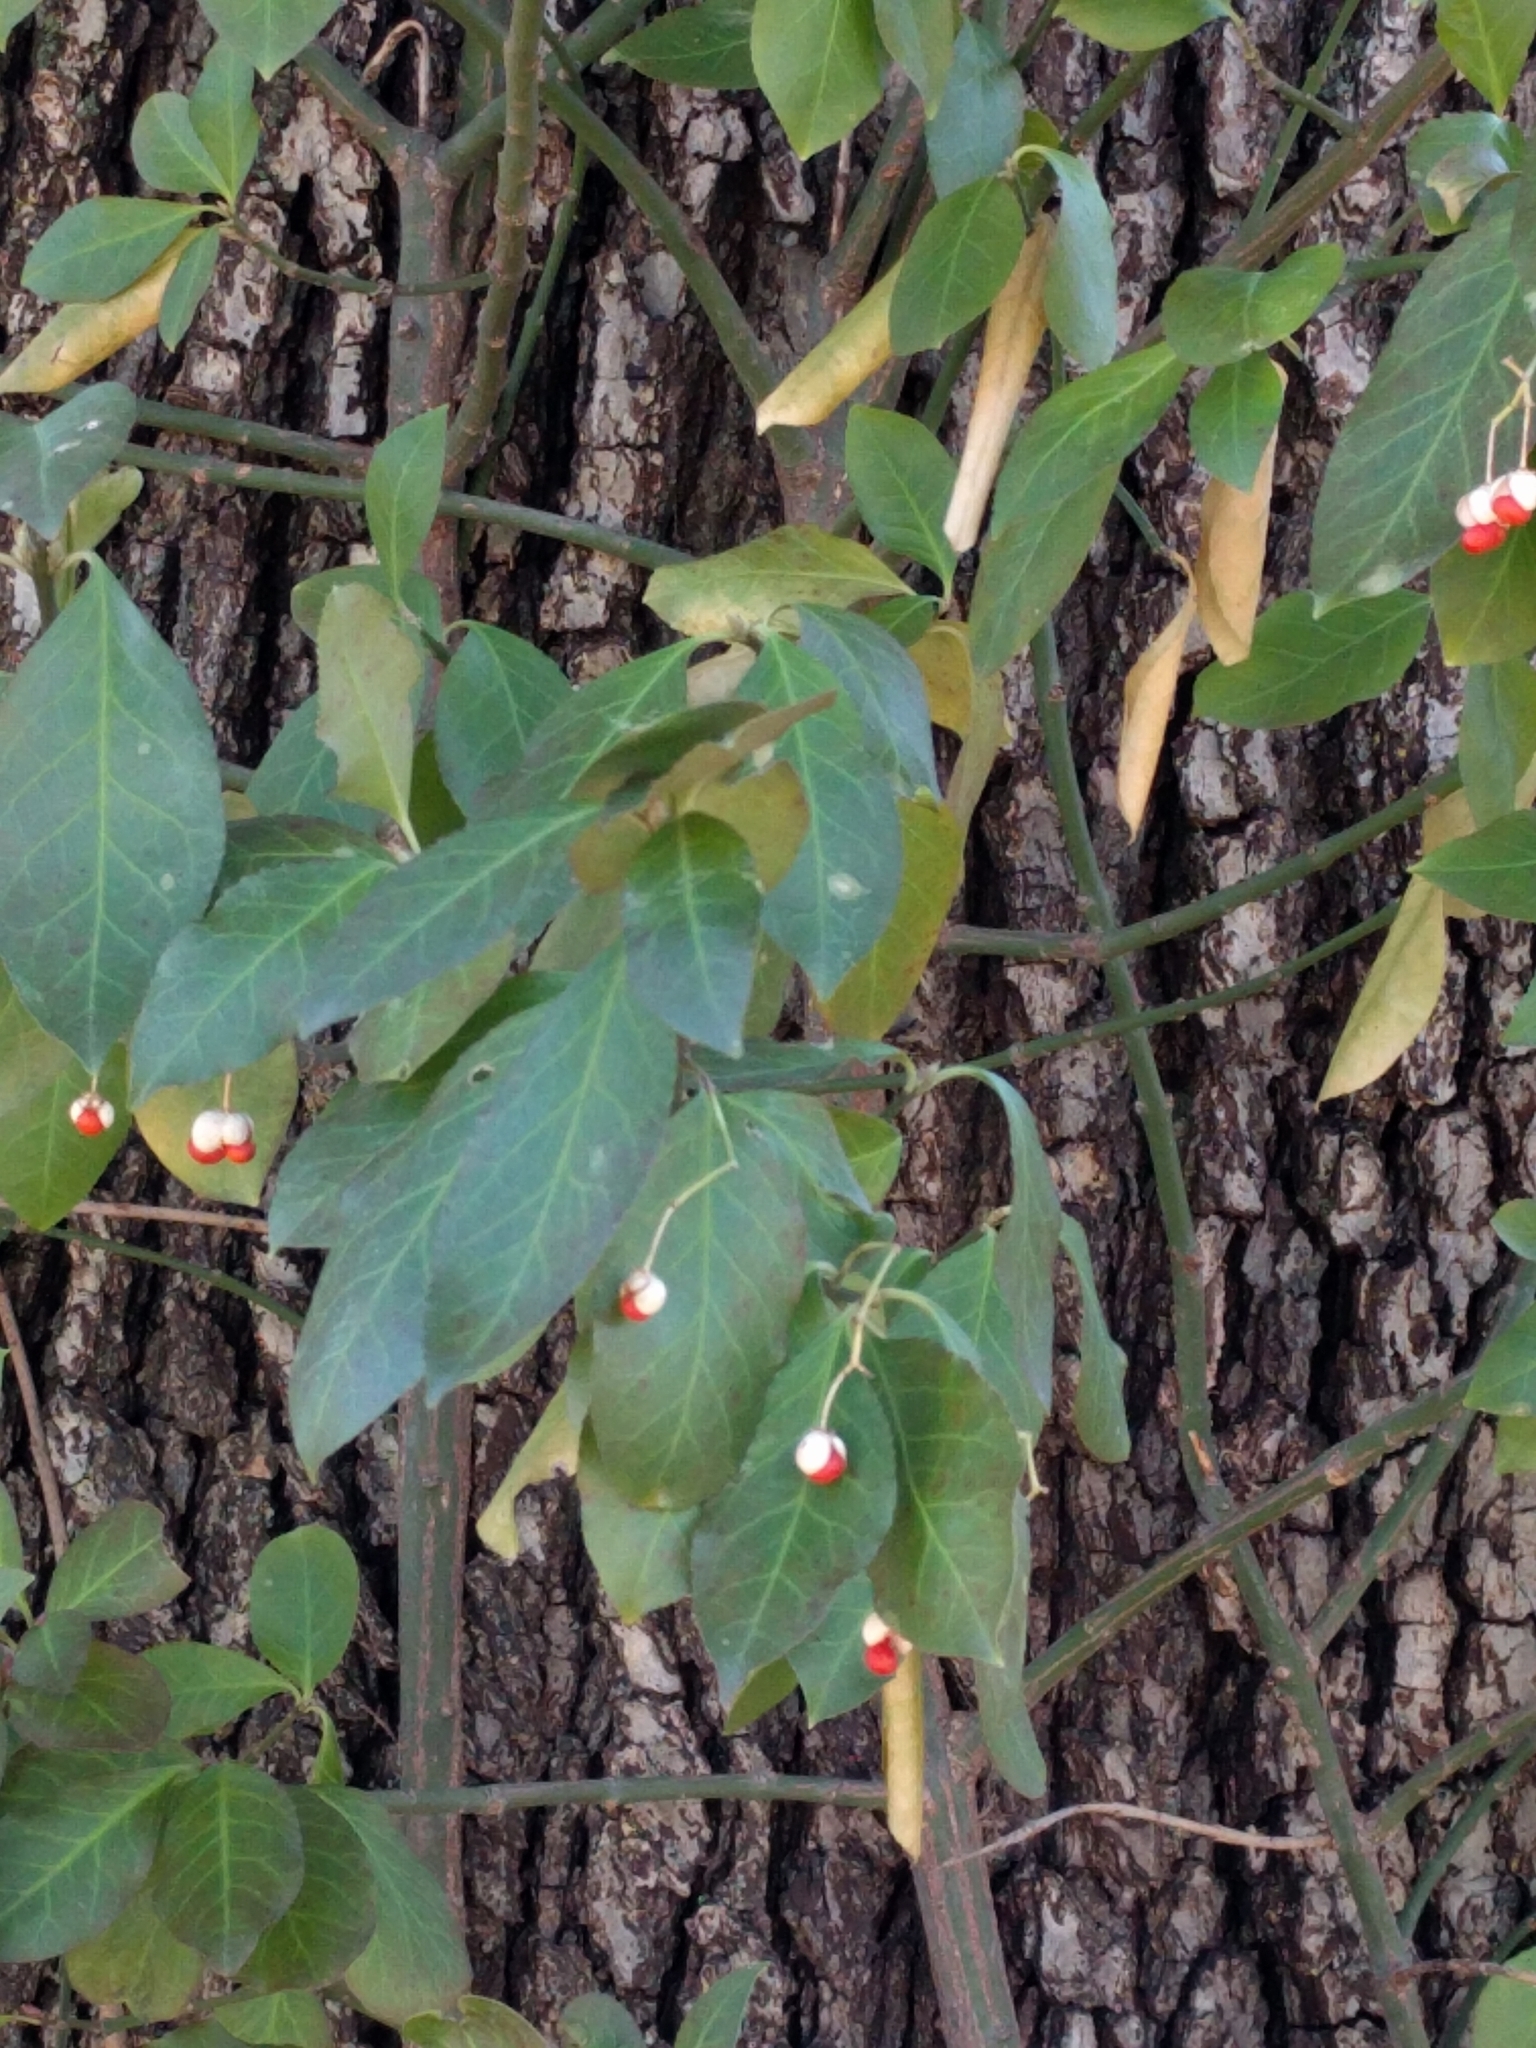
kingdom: Plantae
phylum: Tracheophyta
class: Magnoliopsida
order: Celastrales
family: Celastraceae
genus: Euonymus
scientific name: Euonymus fortunei
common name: Climbing euonymus
